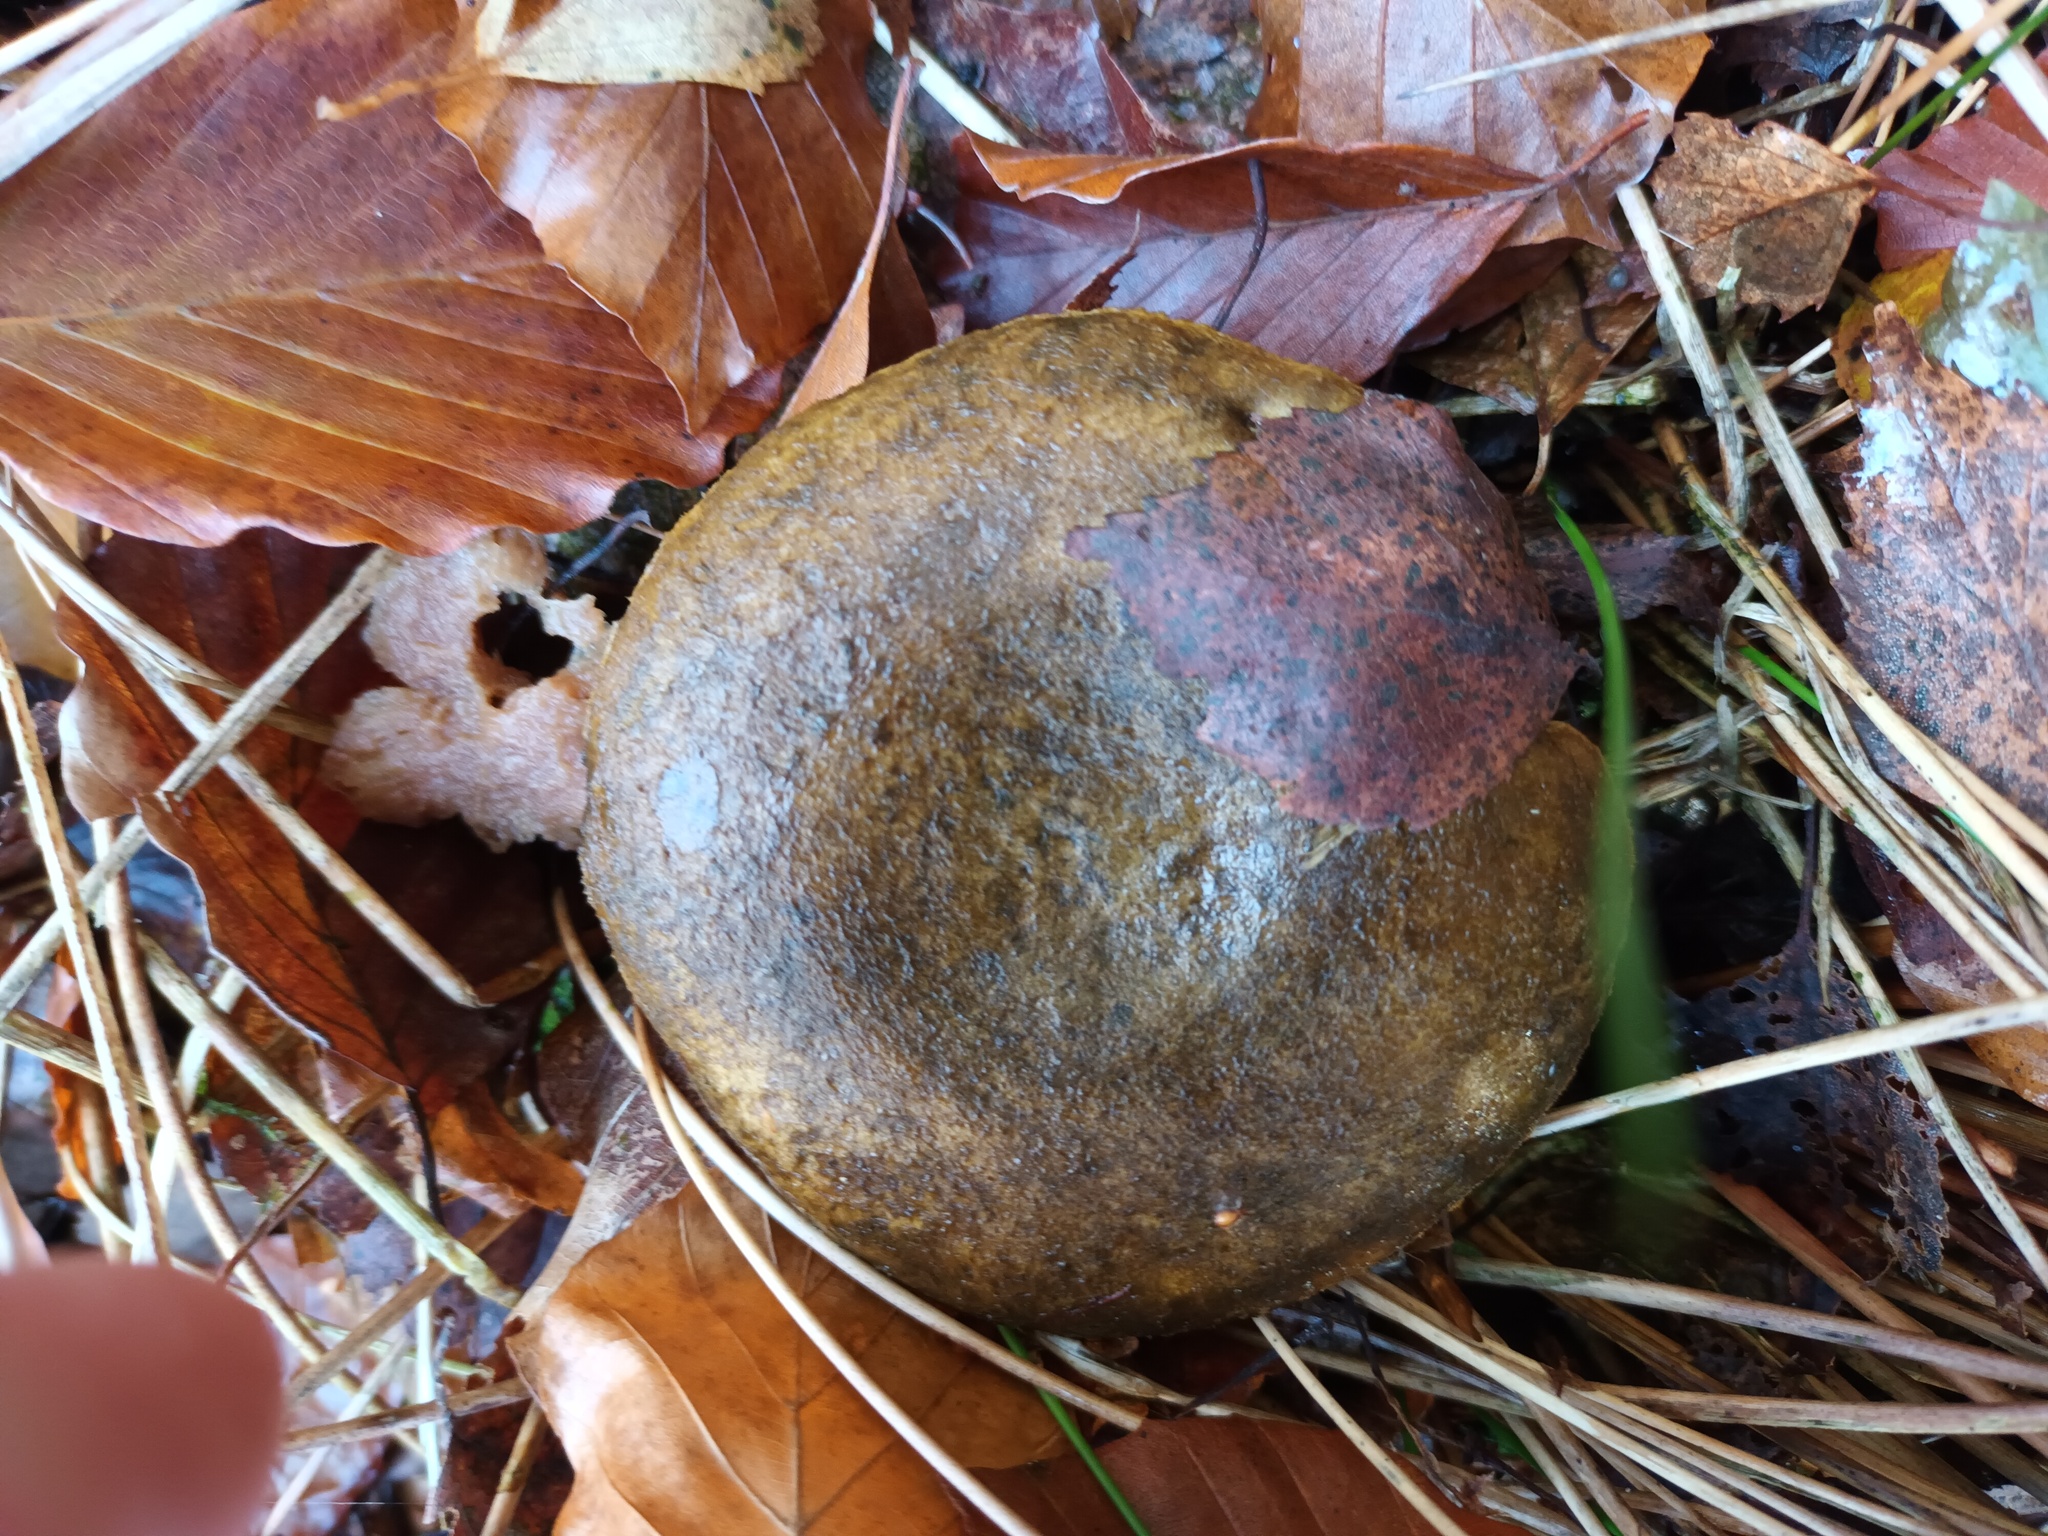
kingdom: Fungi
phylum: Basidiomycota
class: Agaricomycetes
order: Russulales
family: Russulaceae
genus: Lactarius
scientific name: Lactarius turpis
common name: Ugly milk-cap
